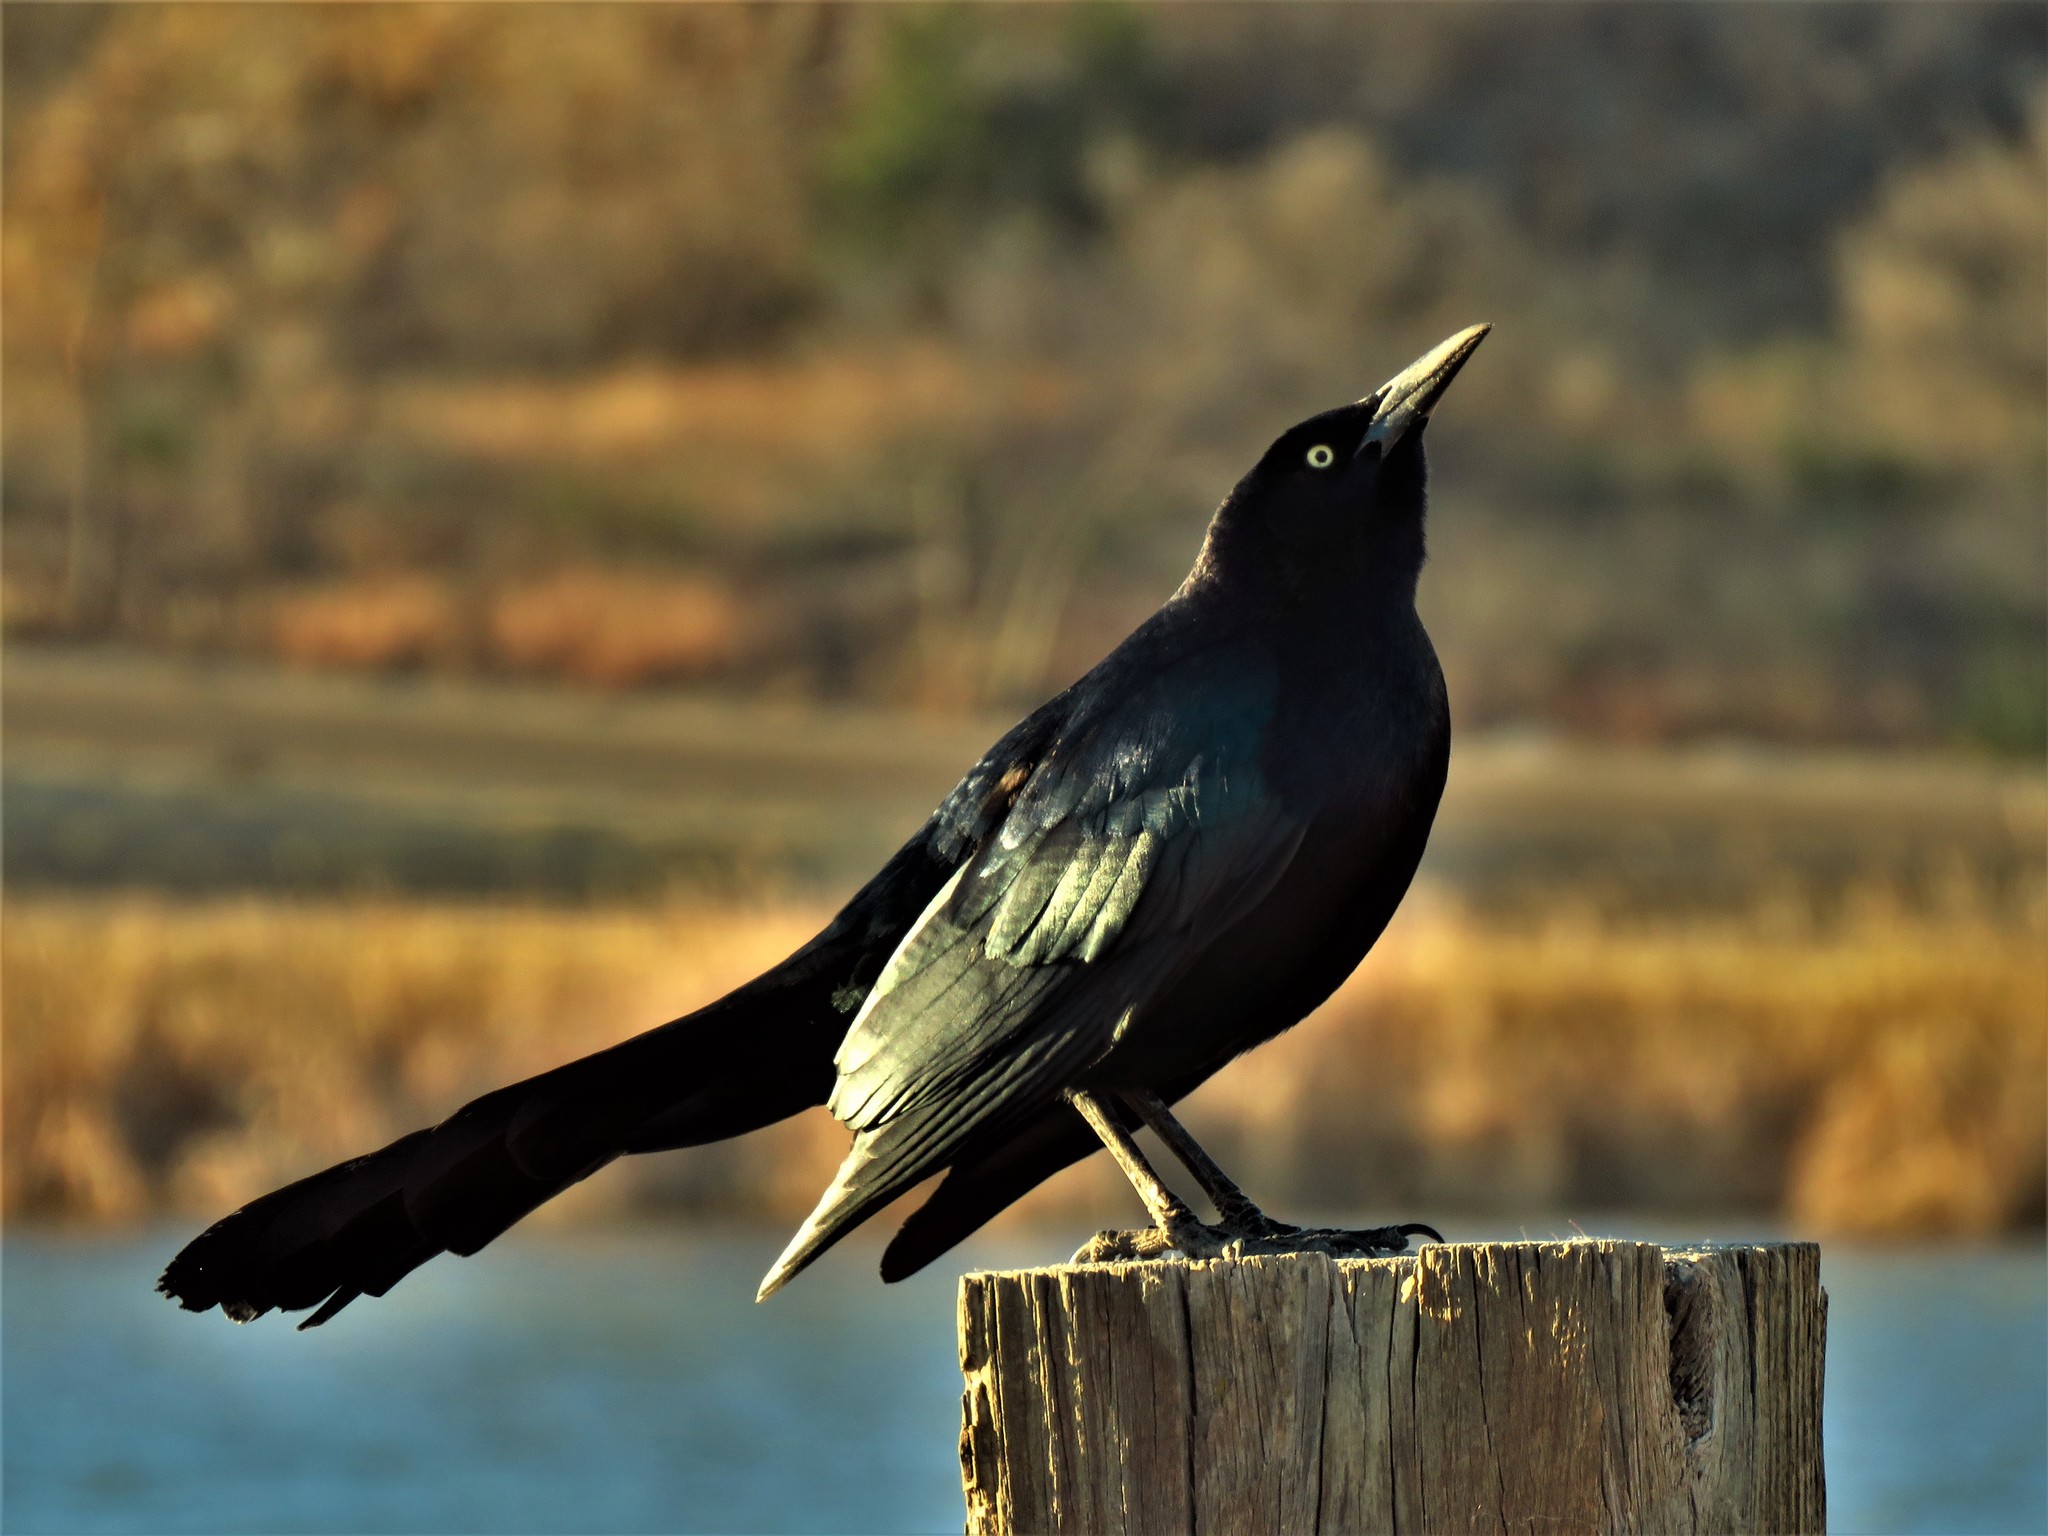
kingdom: Animalia
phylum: Chordata
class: Aves
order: Passeriformes
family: Icteridae
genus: Quiscalus
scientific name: Quiscalus mexicanus
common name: Great-tailed grackle
